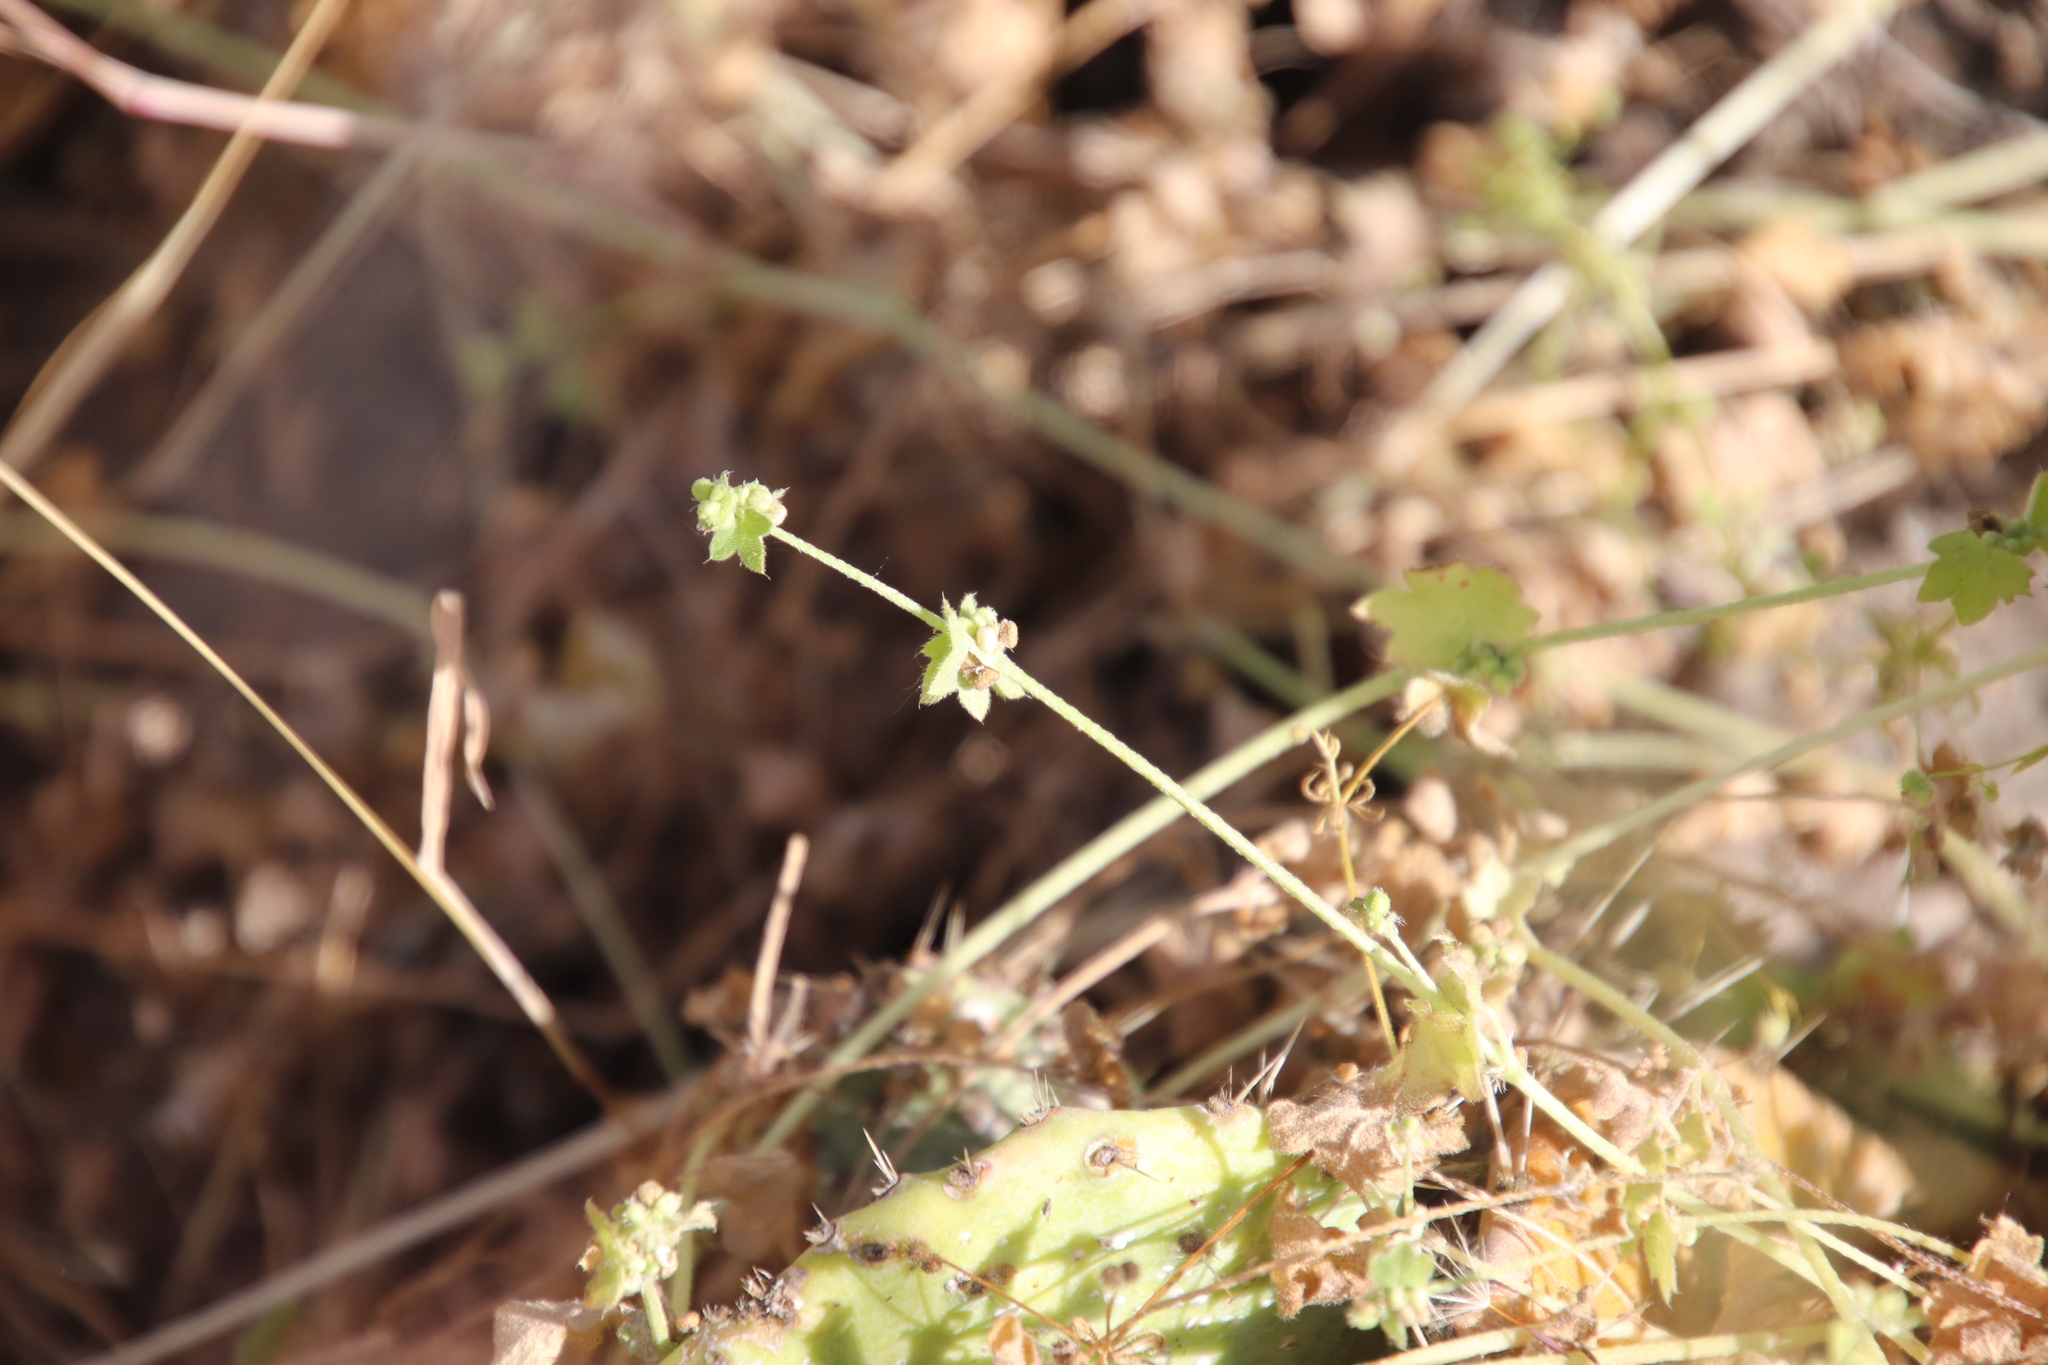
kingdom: Plantae
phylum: Tracheophyta
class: Magnoliopsida
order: Apiales
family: Apiaceae
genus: Bowlesia
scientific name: Bowlesia incana
